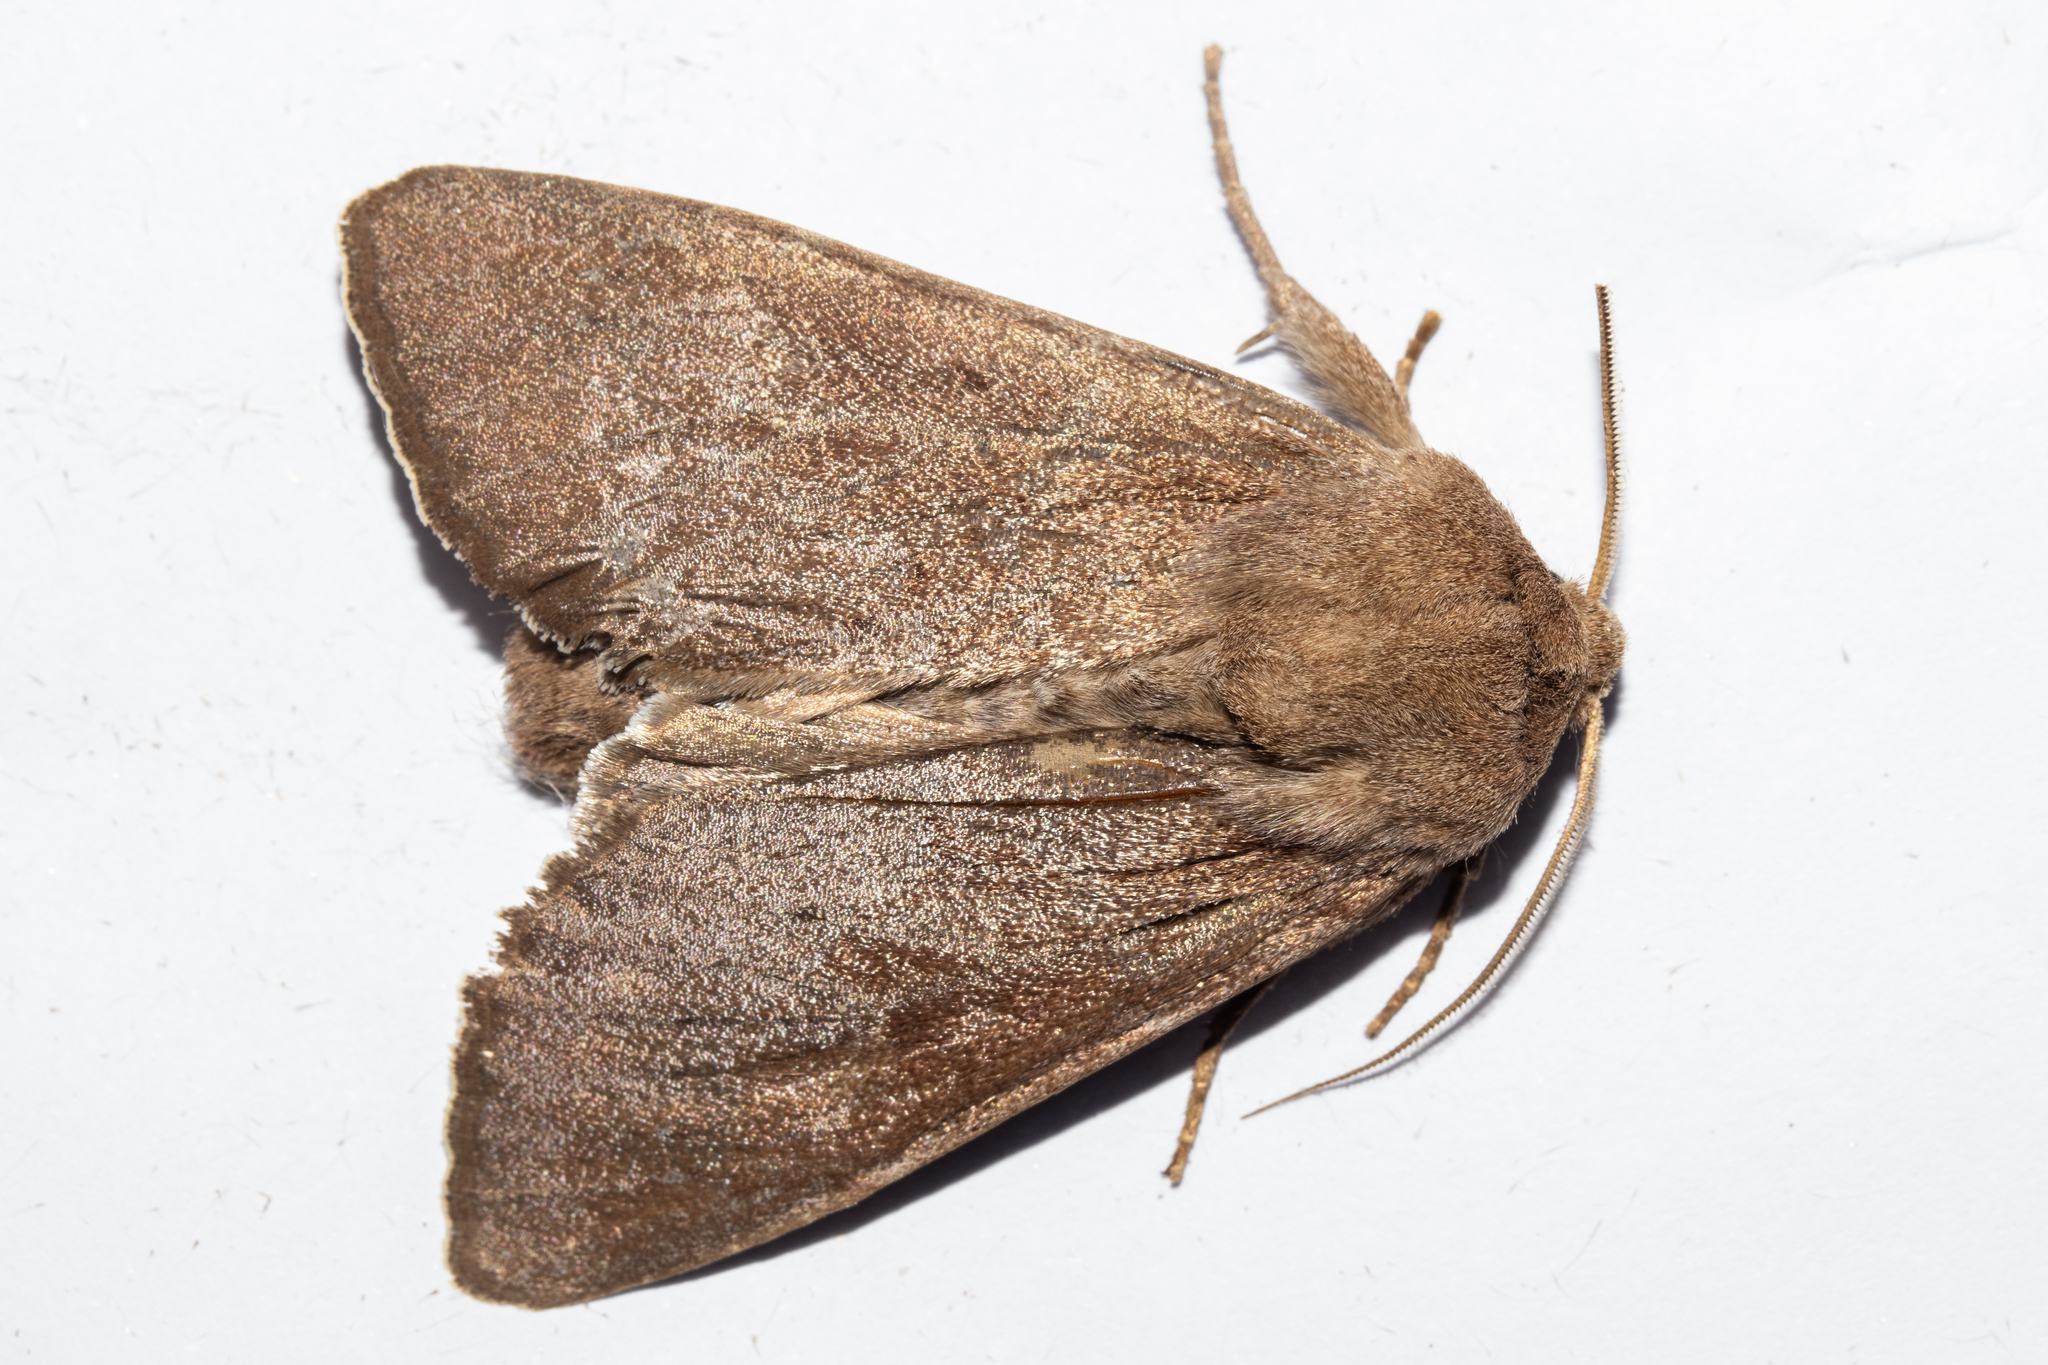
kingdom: Animalia
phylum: Arthropoda
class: Insecta
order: Lepidoptera
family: Noctuidae
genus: Ichneutica
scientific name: Ichneutica nullifera
